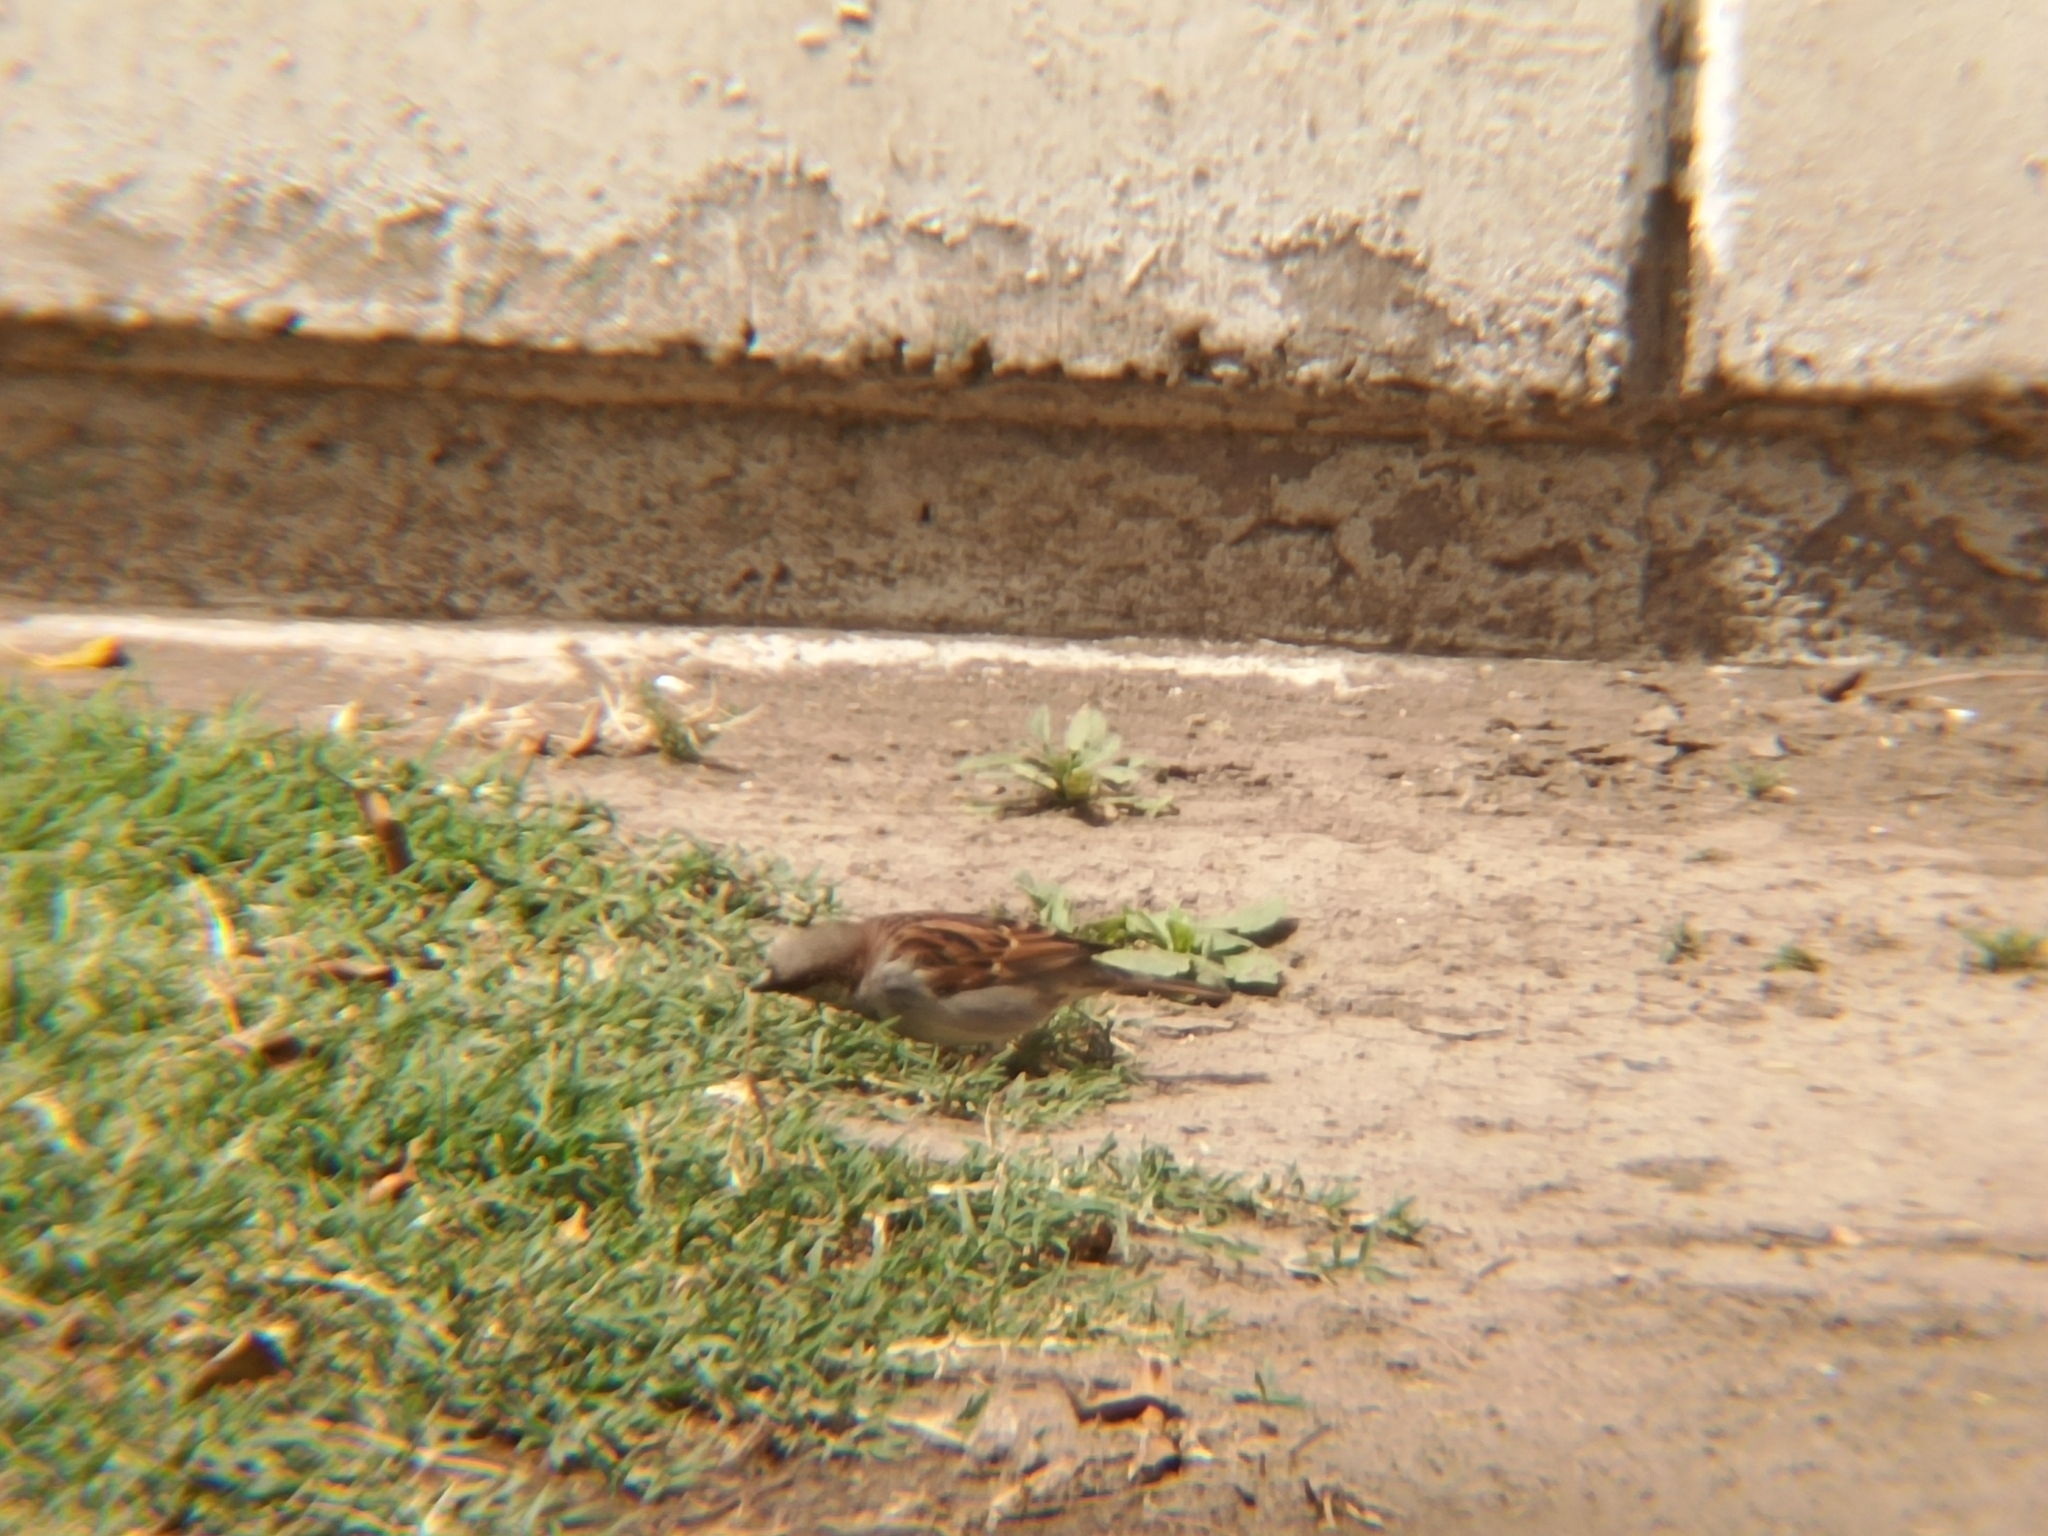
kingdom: Animalia
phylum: Chordata
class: Aves
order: Passeriformes
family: Passeridae
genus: Passer
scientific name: Passer domesticus
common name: House sparrow
